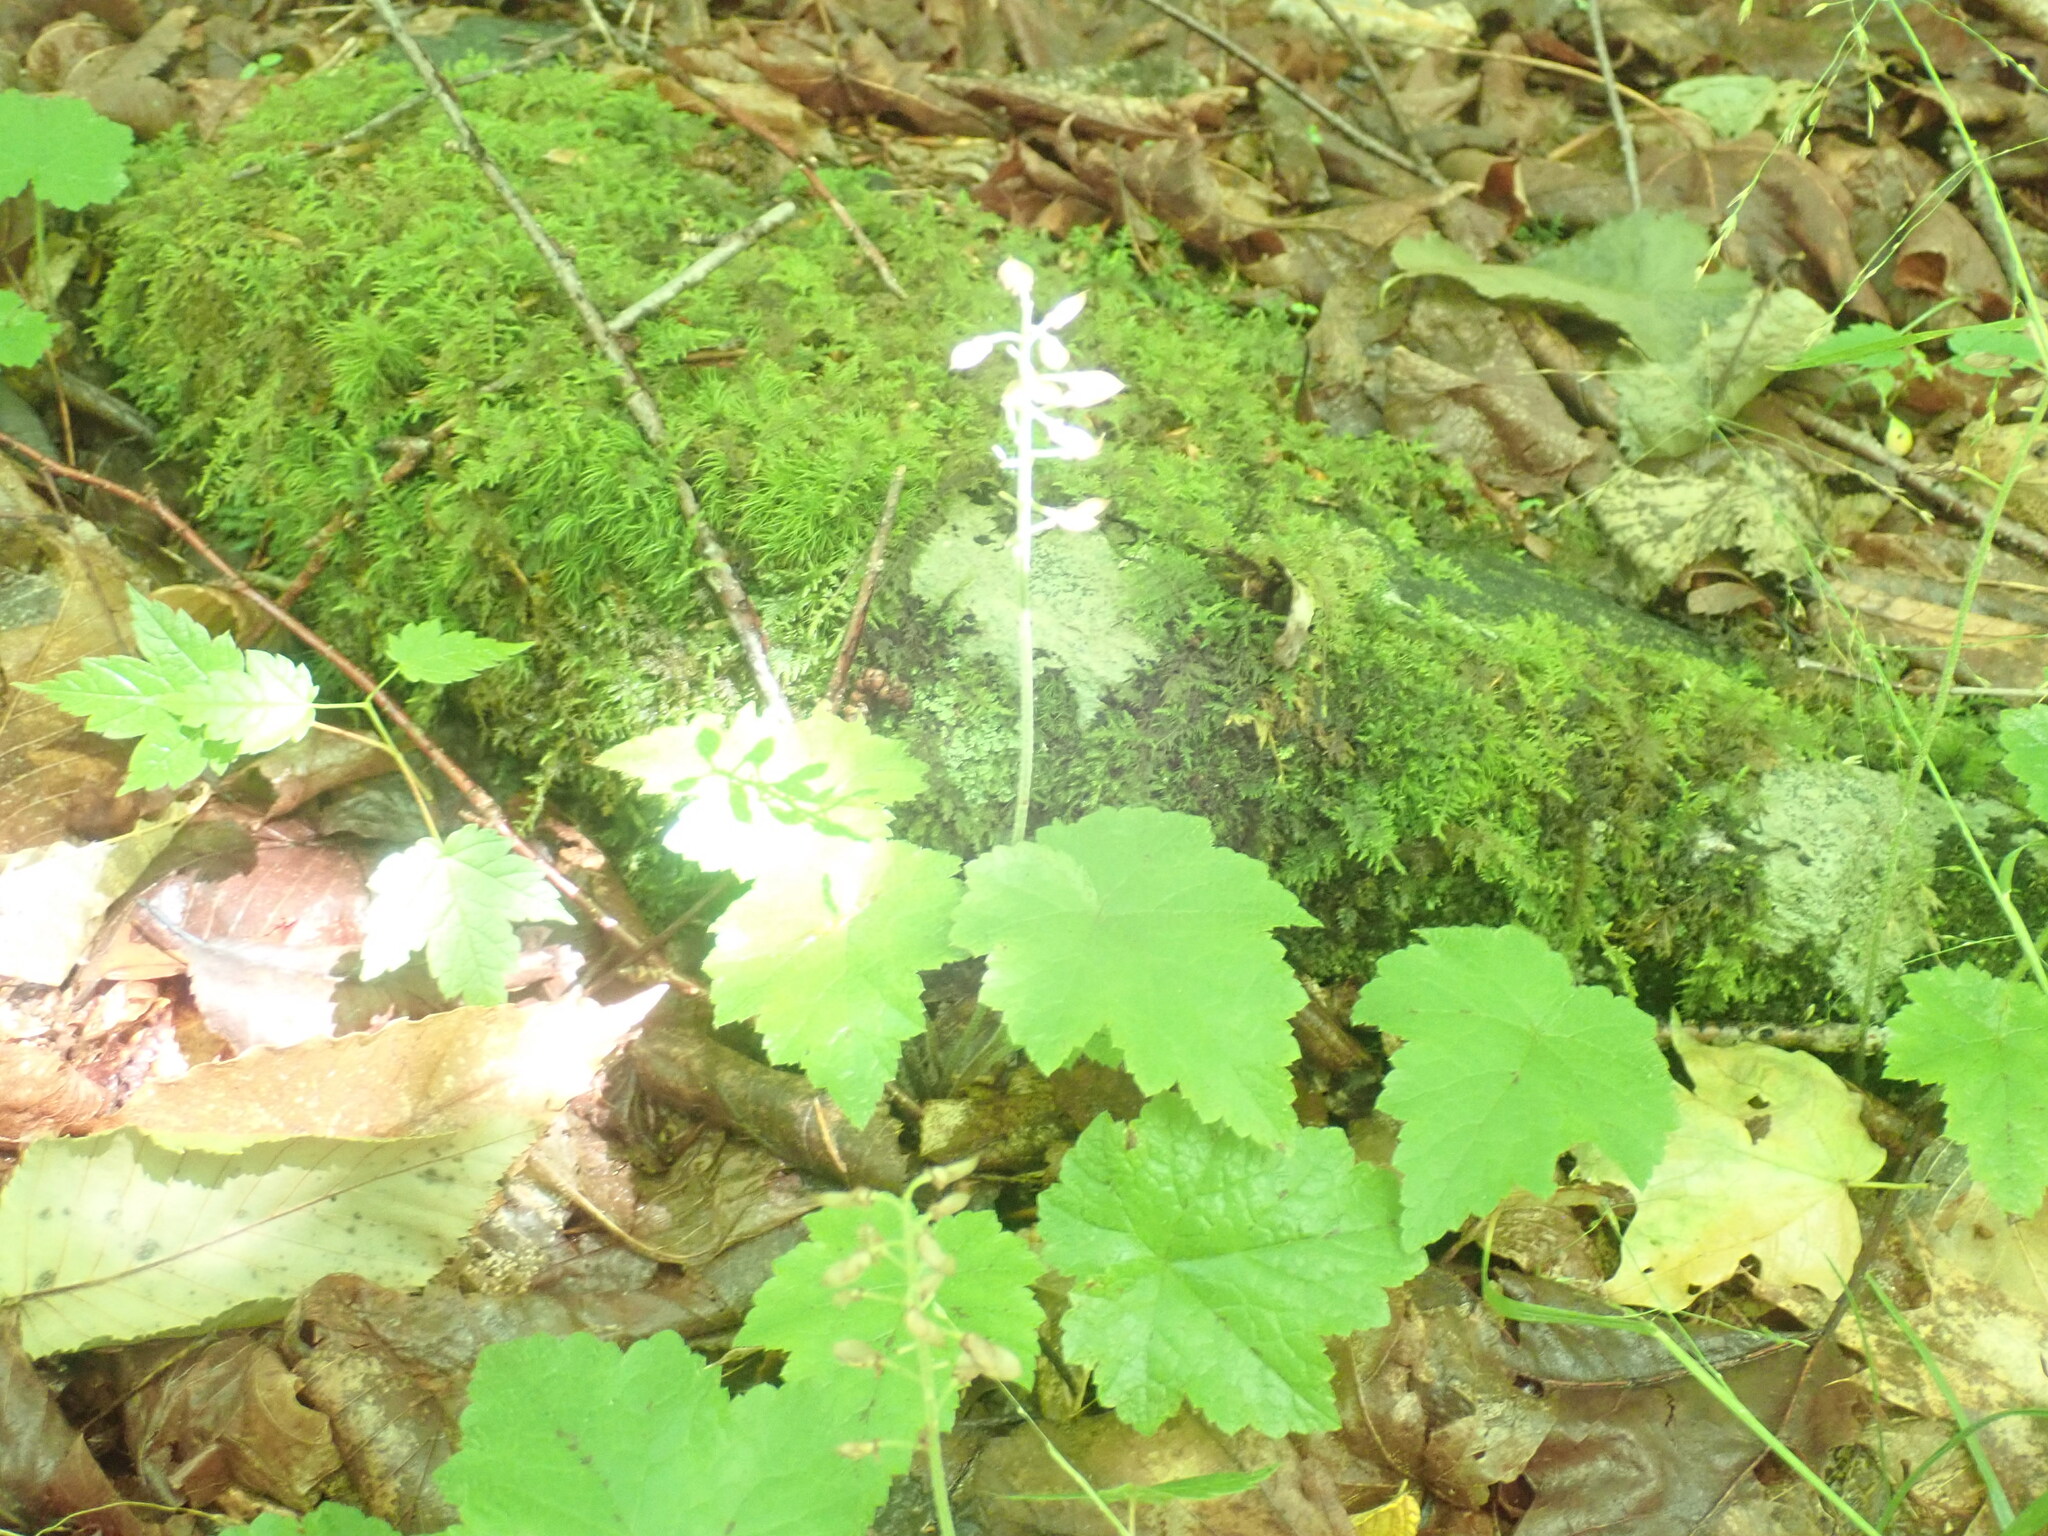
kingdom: Plantae
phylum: Tracheophyta
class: Magnoliopsida
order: Saxifragales
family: Saxifragaceae
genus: Tiarella
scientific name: Tiarella stolonifera
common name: Stoloniferous foamflower
